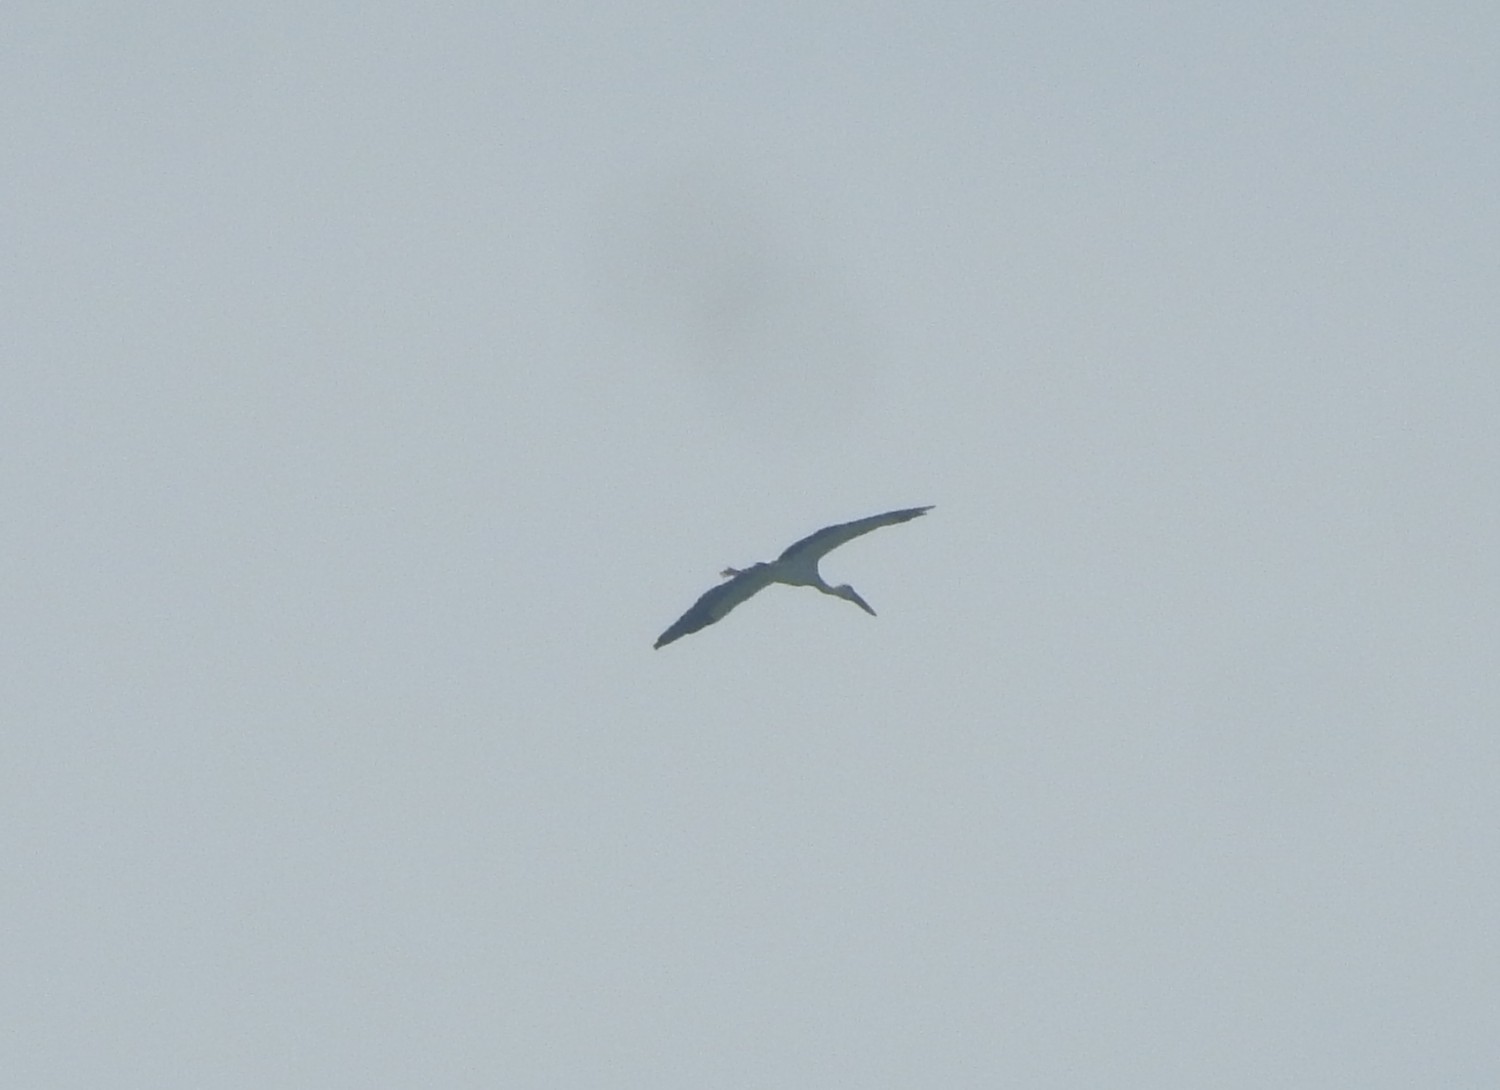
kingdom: Animalia
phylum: Chordata
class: Aves
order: Ciconiiformes
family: Ciconiidae
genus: Anastomus
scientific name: Anastomus oscitans
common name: Asian openbill
